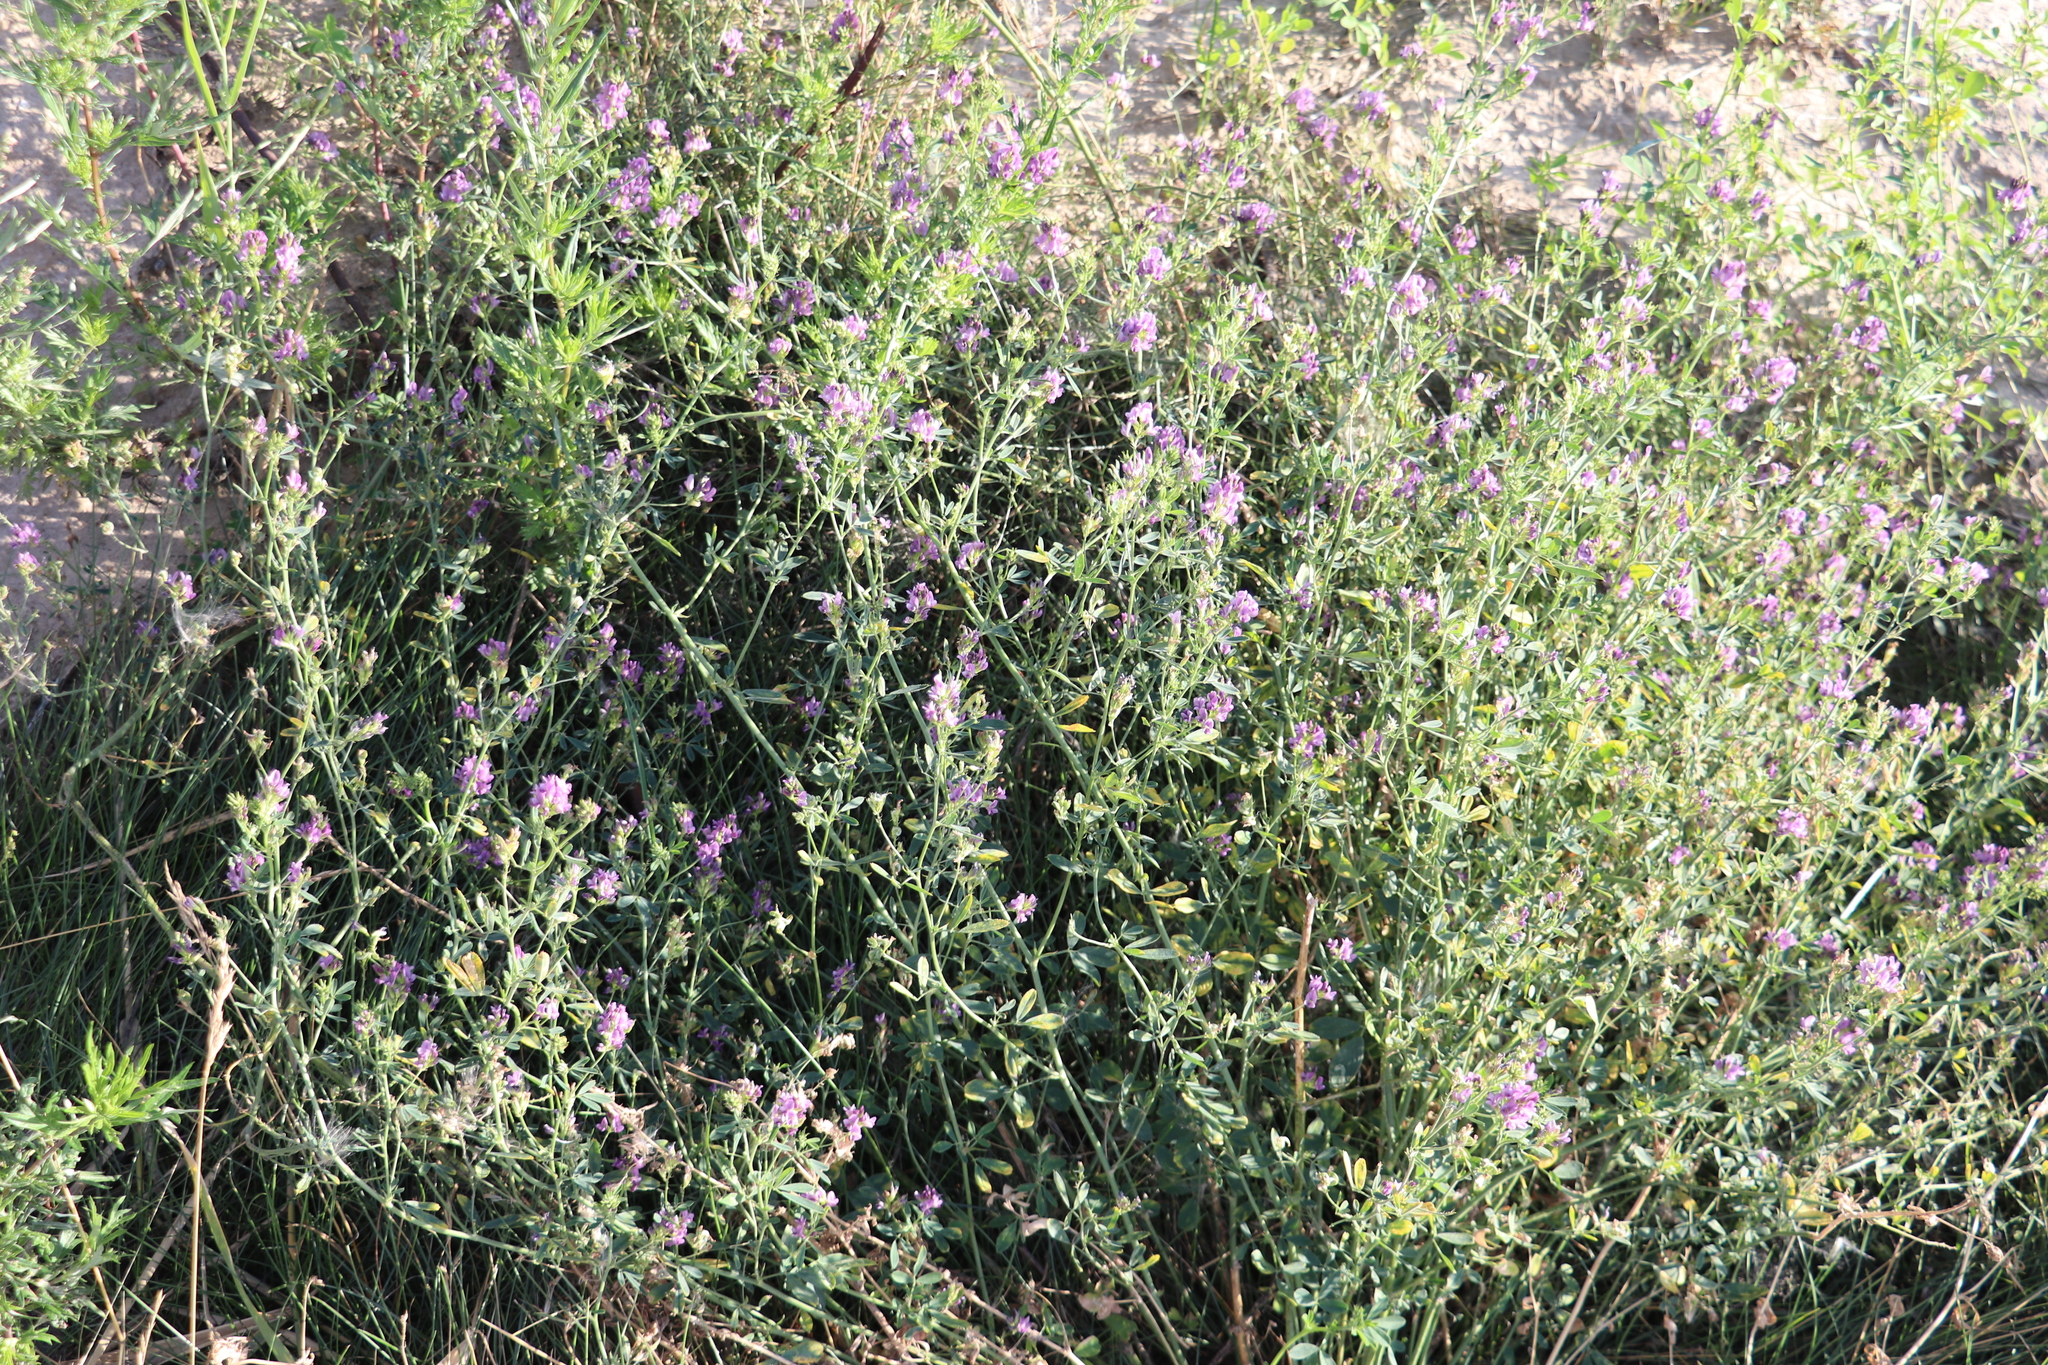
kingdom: Plantae
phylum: Tracheophyta
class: Magnoliopsida
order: Fabales
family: Fabaceae
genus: Medicago
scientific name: Medicago sativa
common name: Alfalfa
